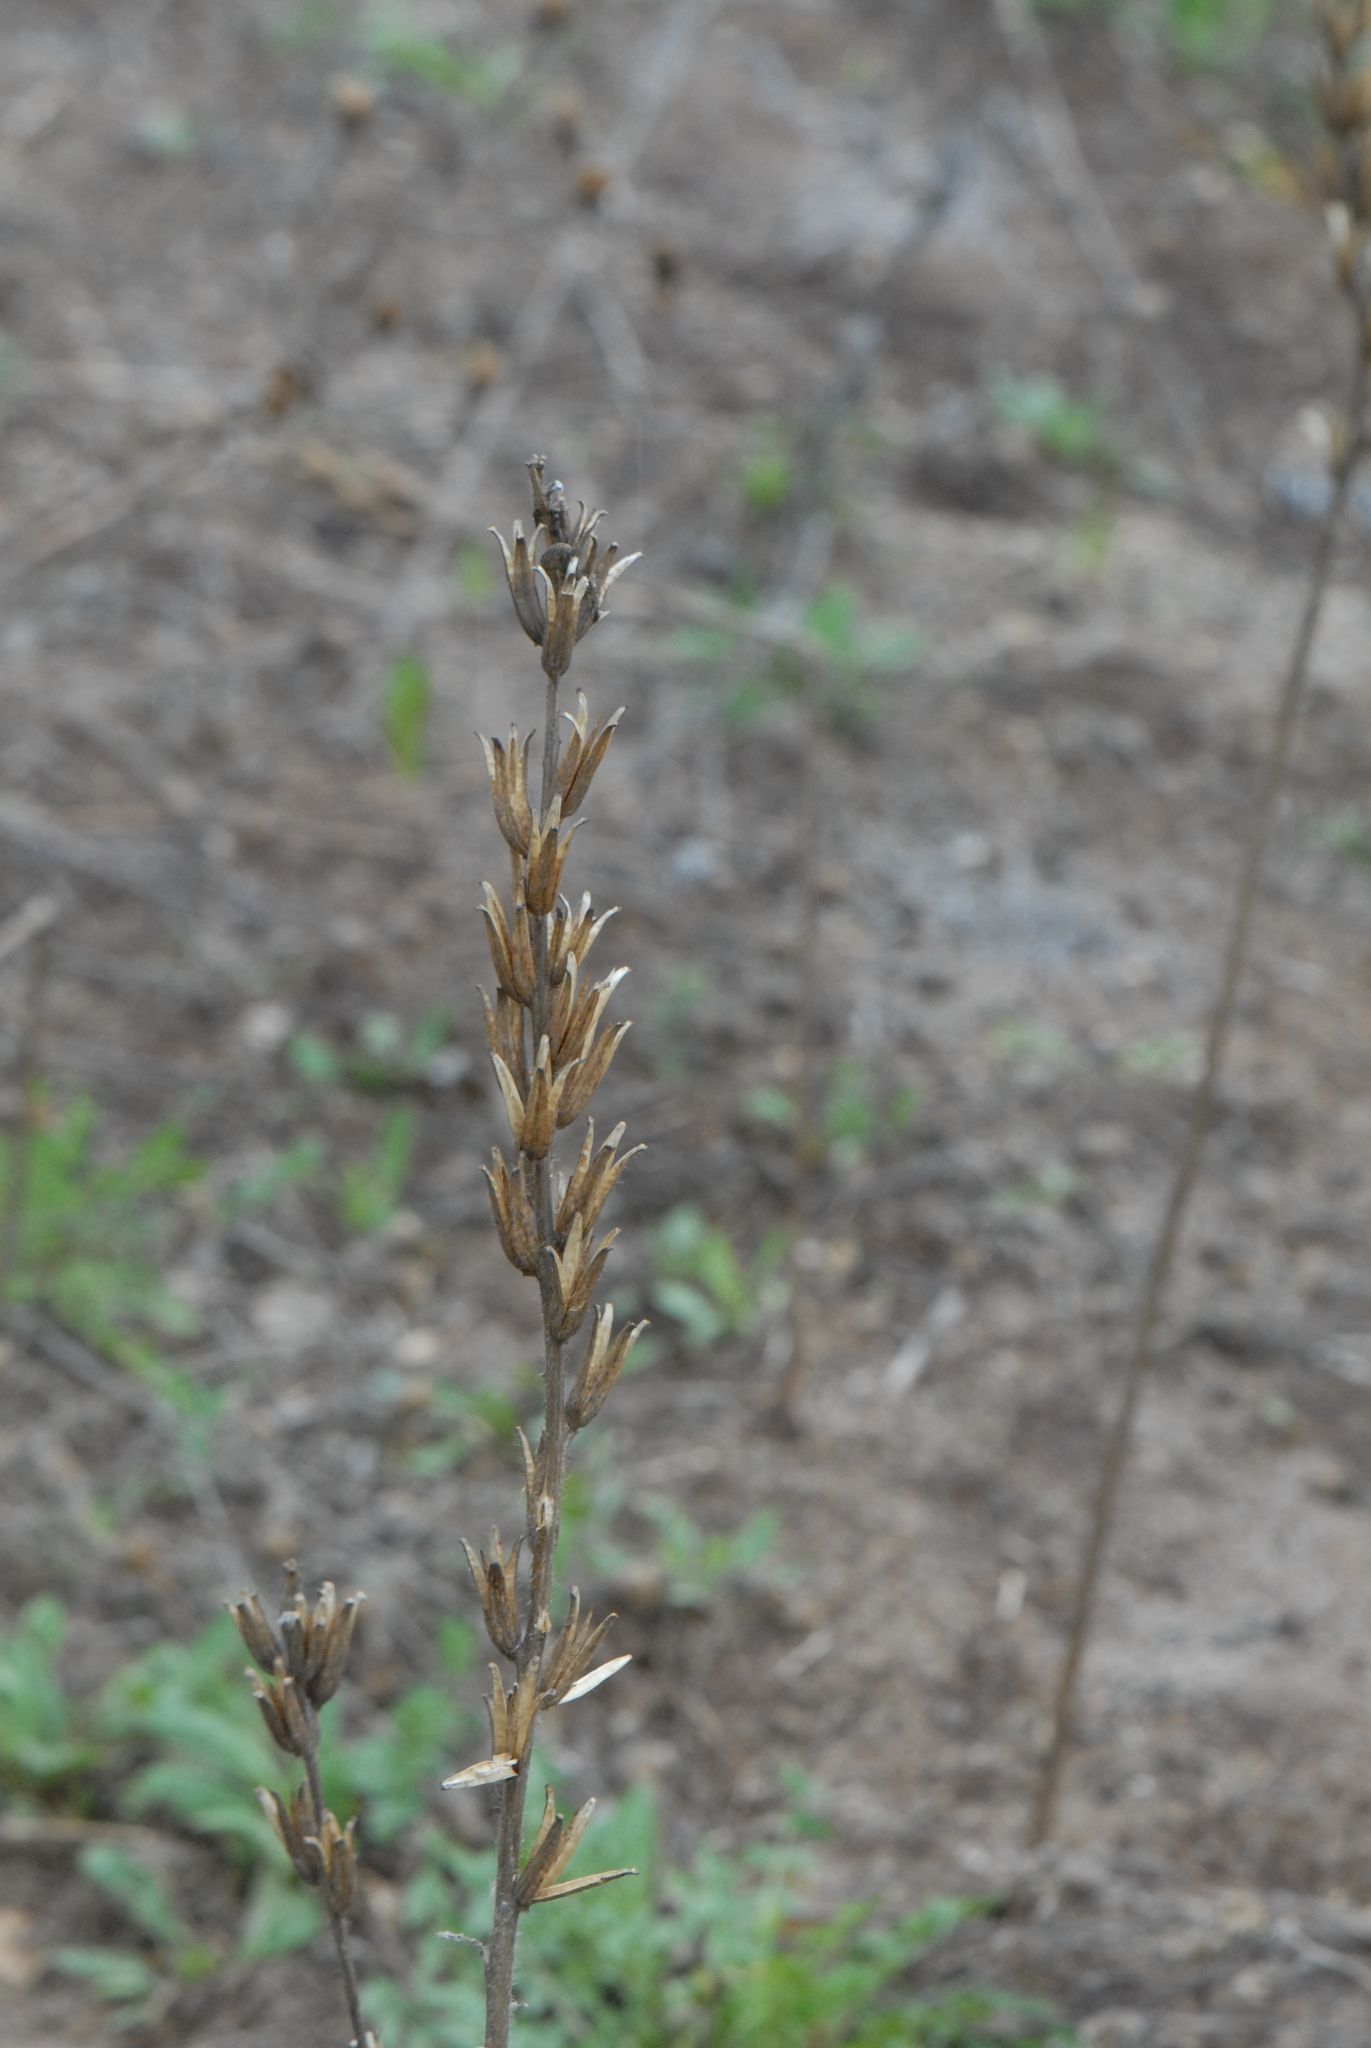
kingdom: Plantae
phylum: Tracheophyta
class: Magnoliopsida
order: Myrtales
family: Onagraceae
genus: Oenothera
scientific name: Oenothera
